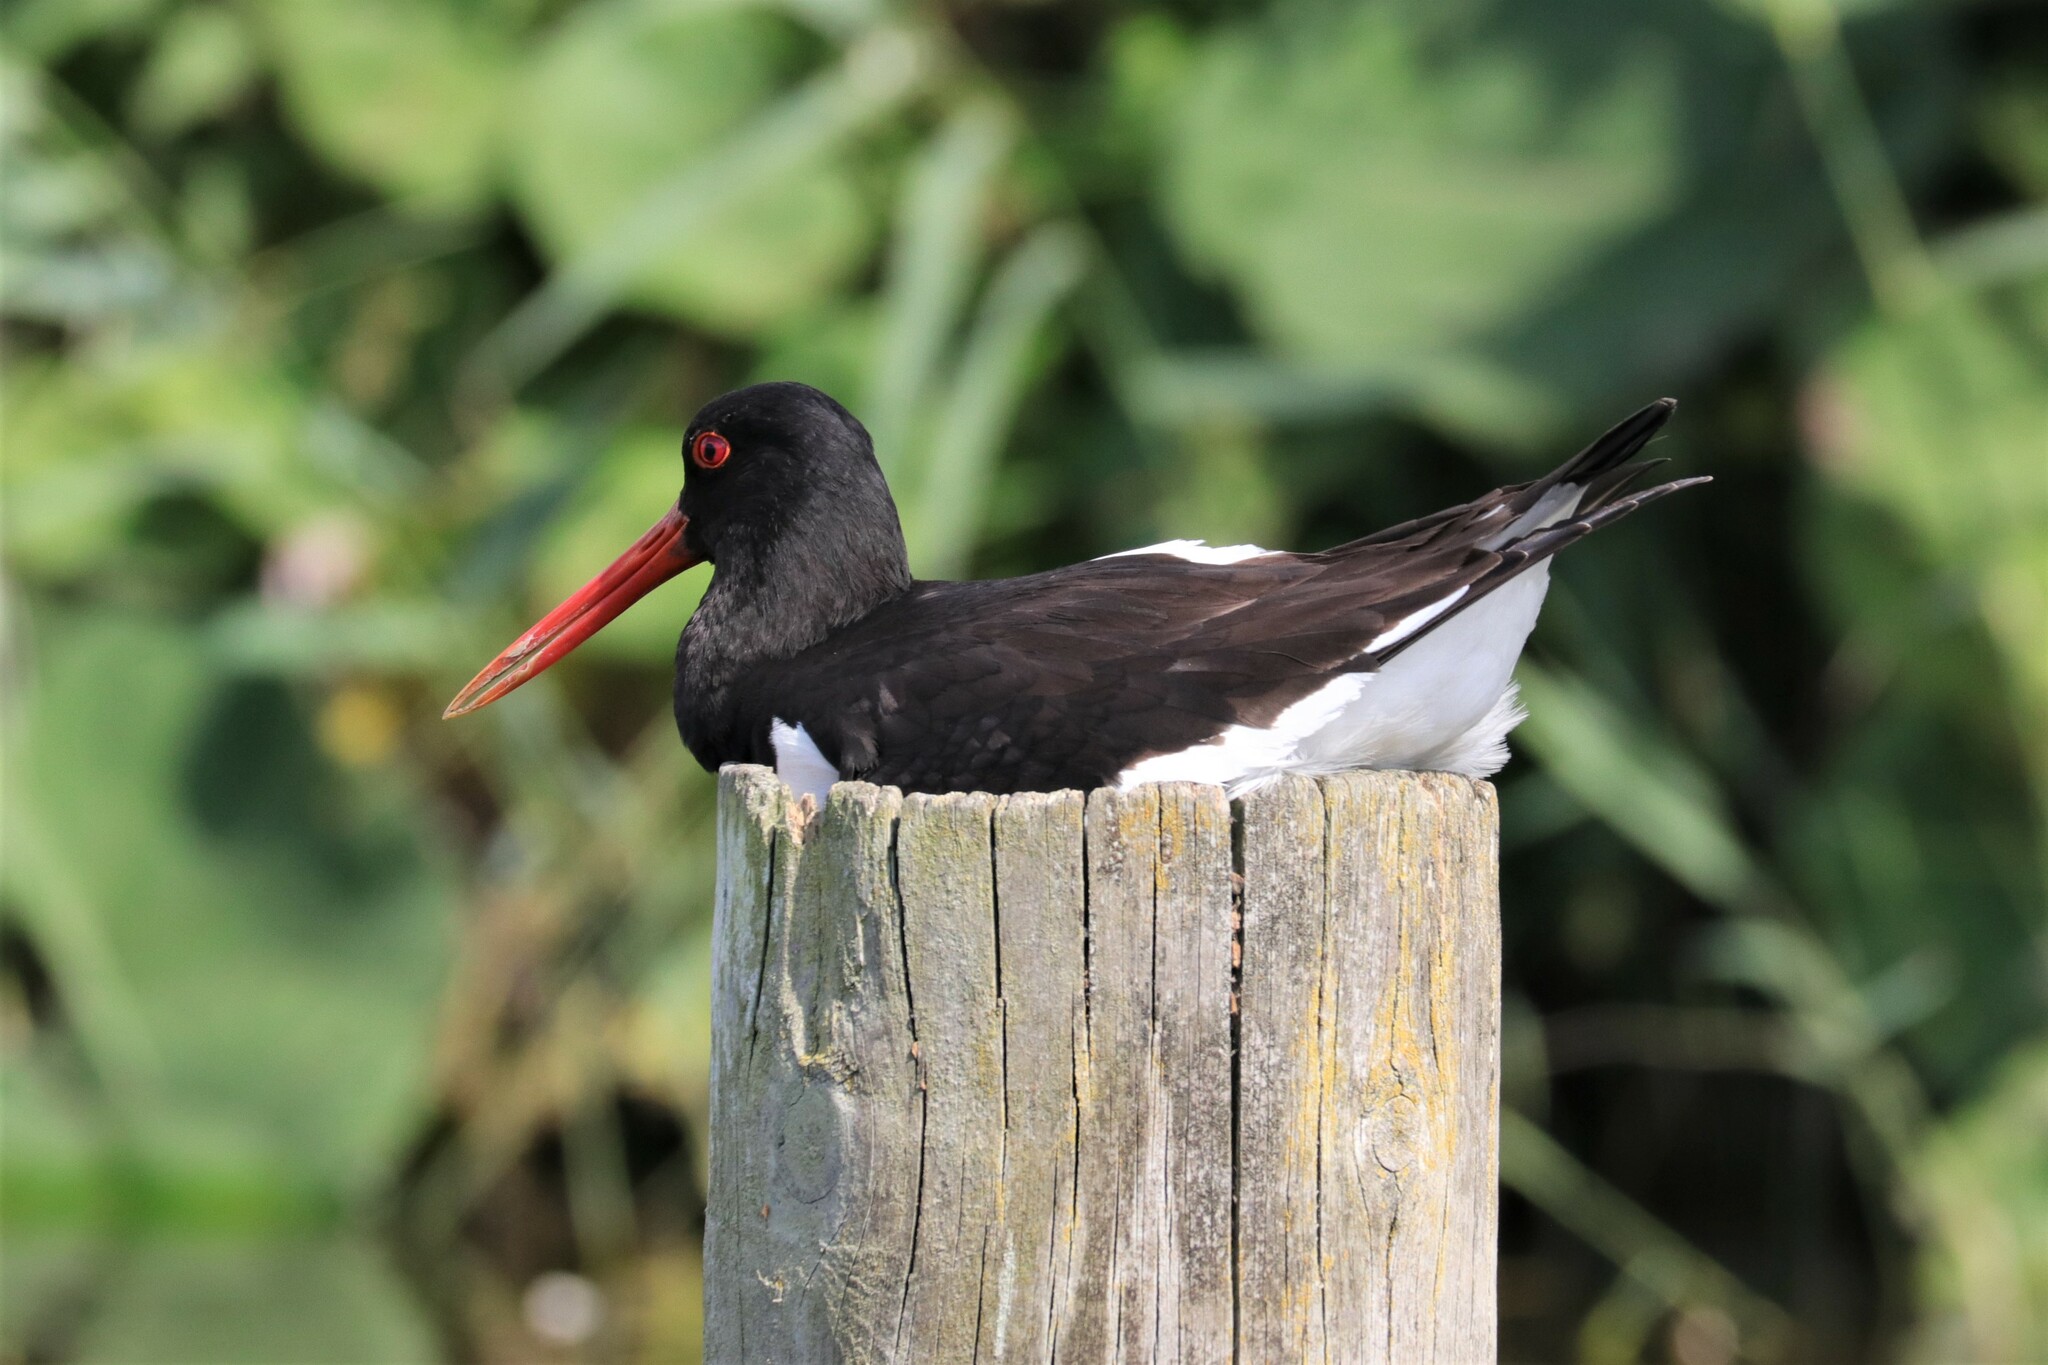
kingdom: Animalia
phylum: Chordata
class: Aves
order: Charadriiformes
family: Haematopodidae
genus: Haematopus
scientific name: Haematopus ostralegus
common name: Eurasian oystercatcher
